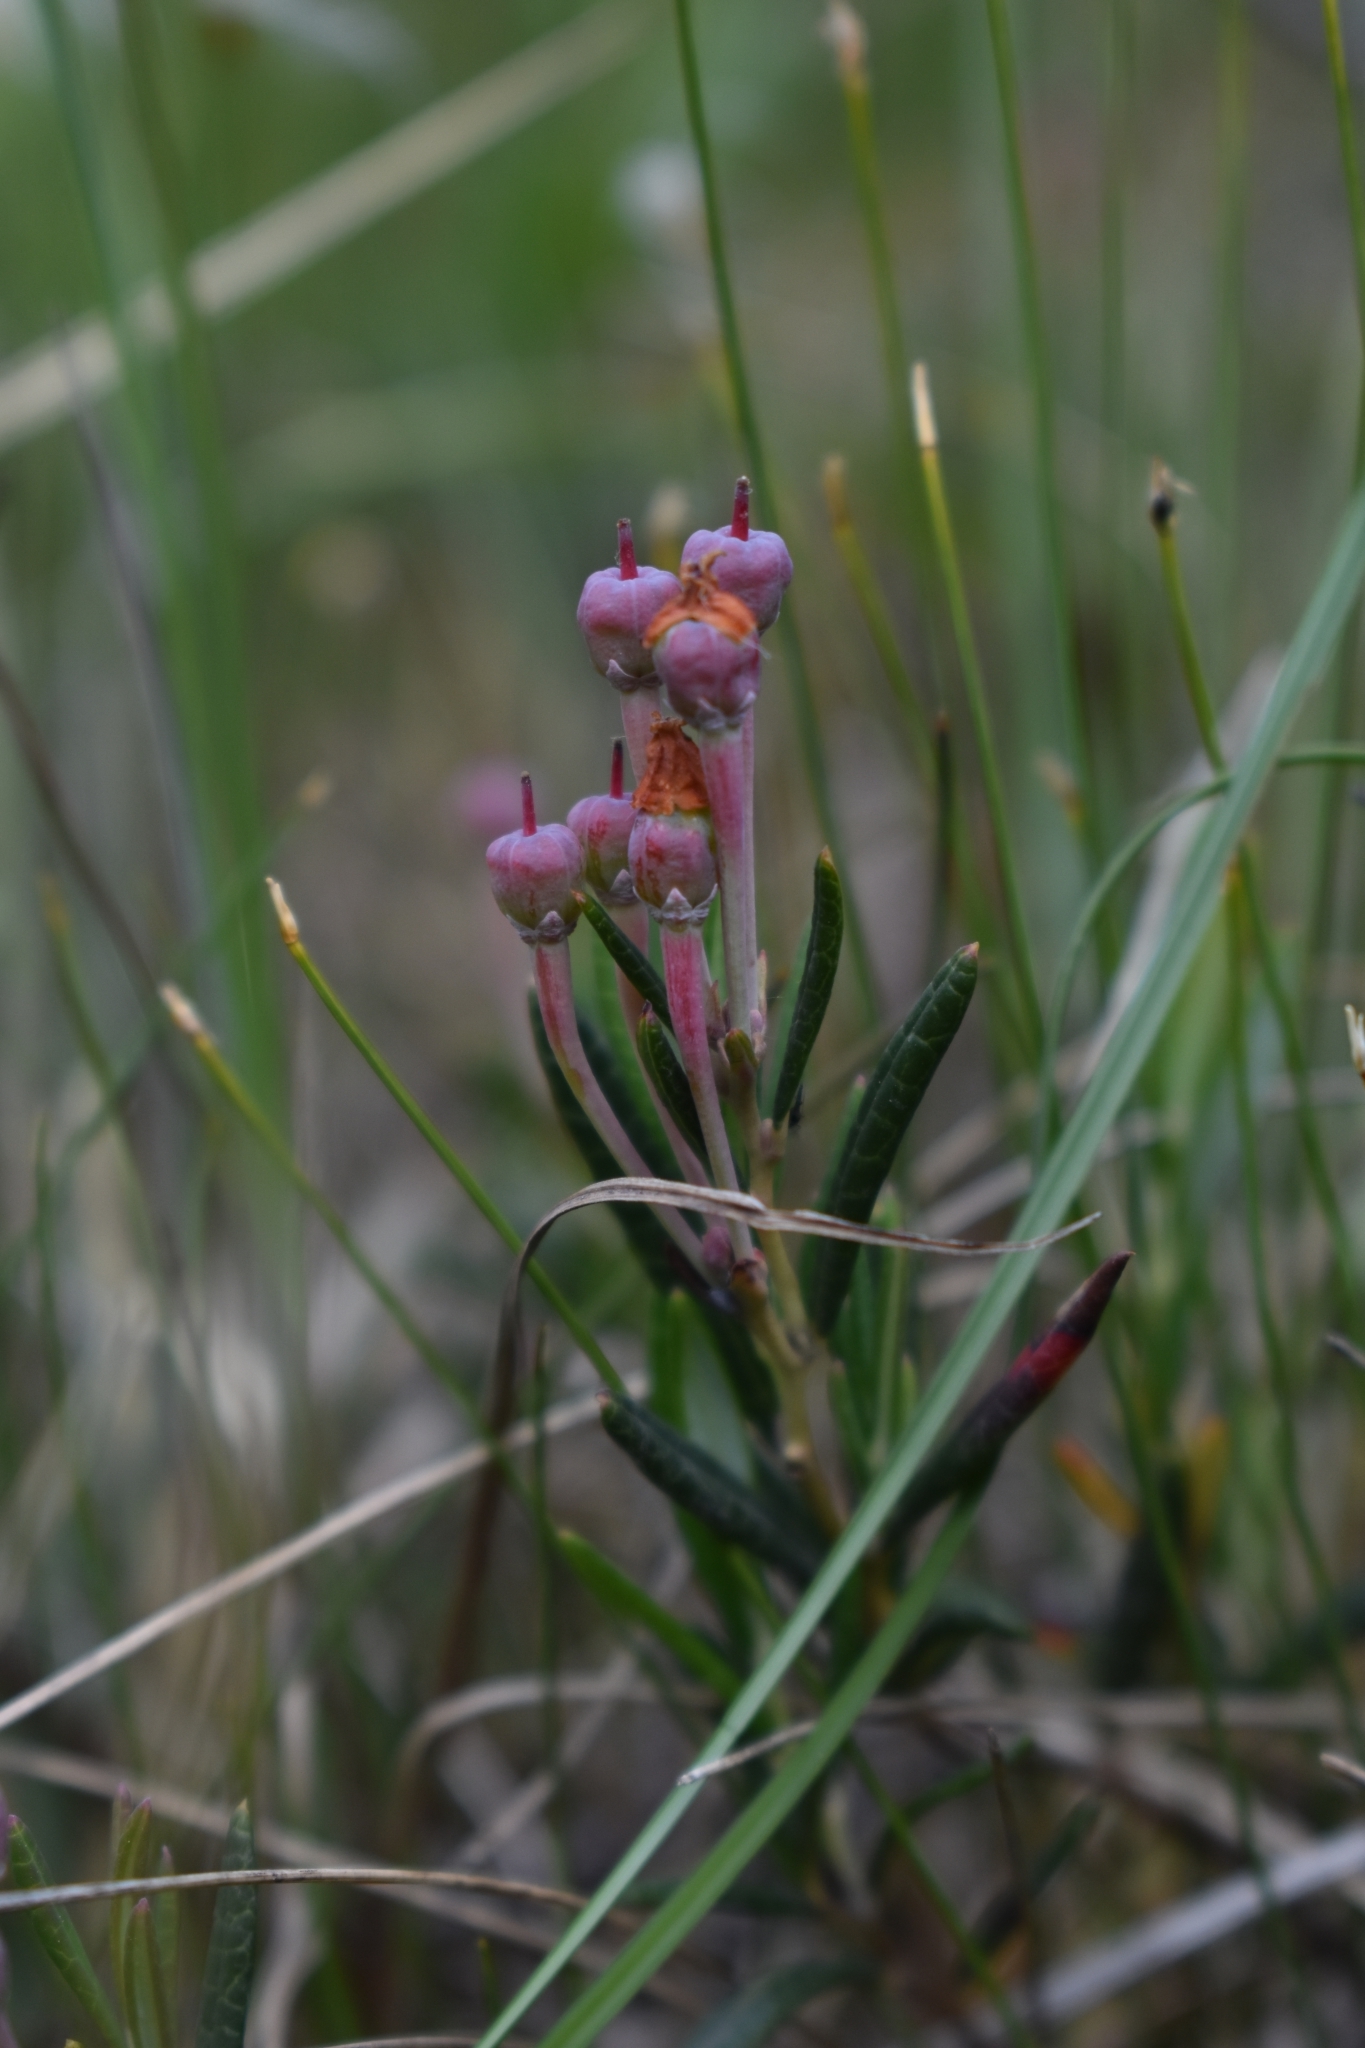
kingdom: Plantae
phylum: Tracheophyta
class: Magnoliopsida
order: Ericales
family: Ericaceae
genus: Andromeda
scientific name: Andromeda polifolia
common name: Bog-rosemary
